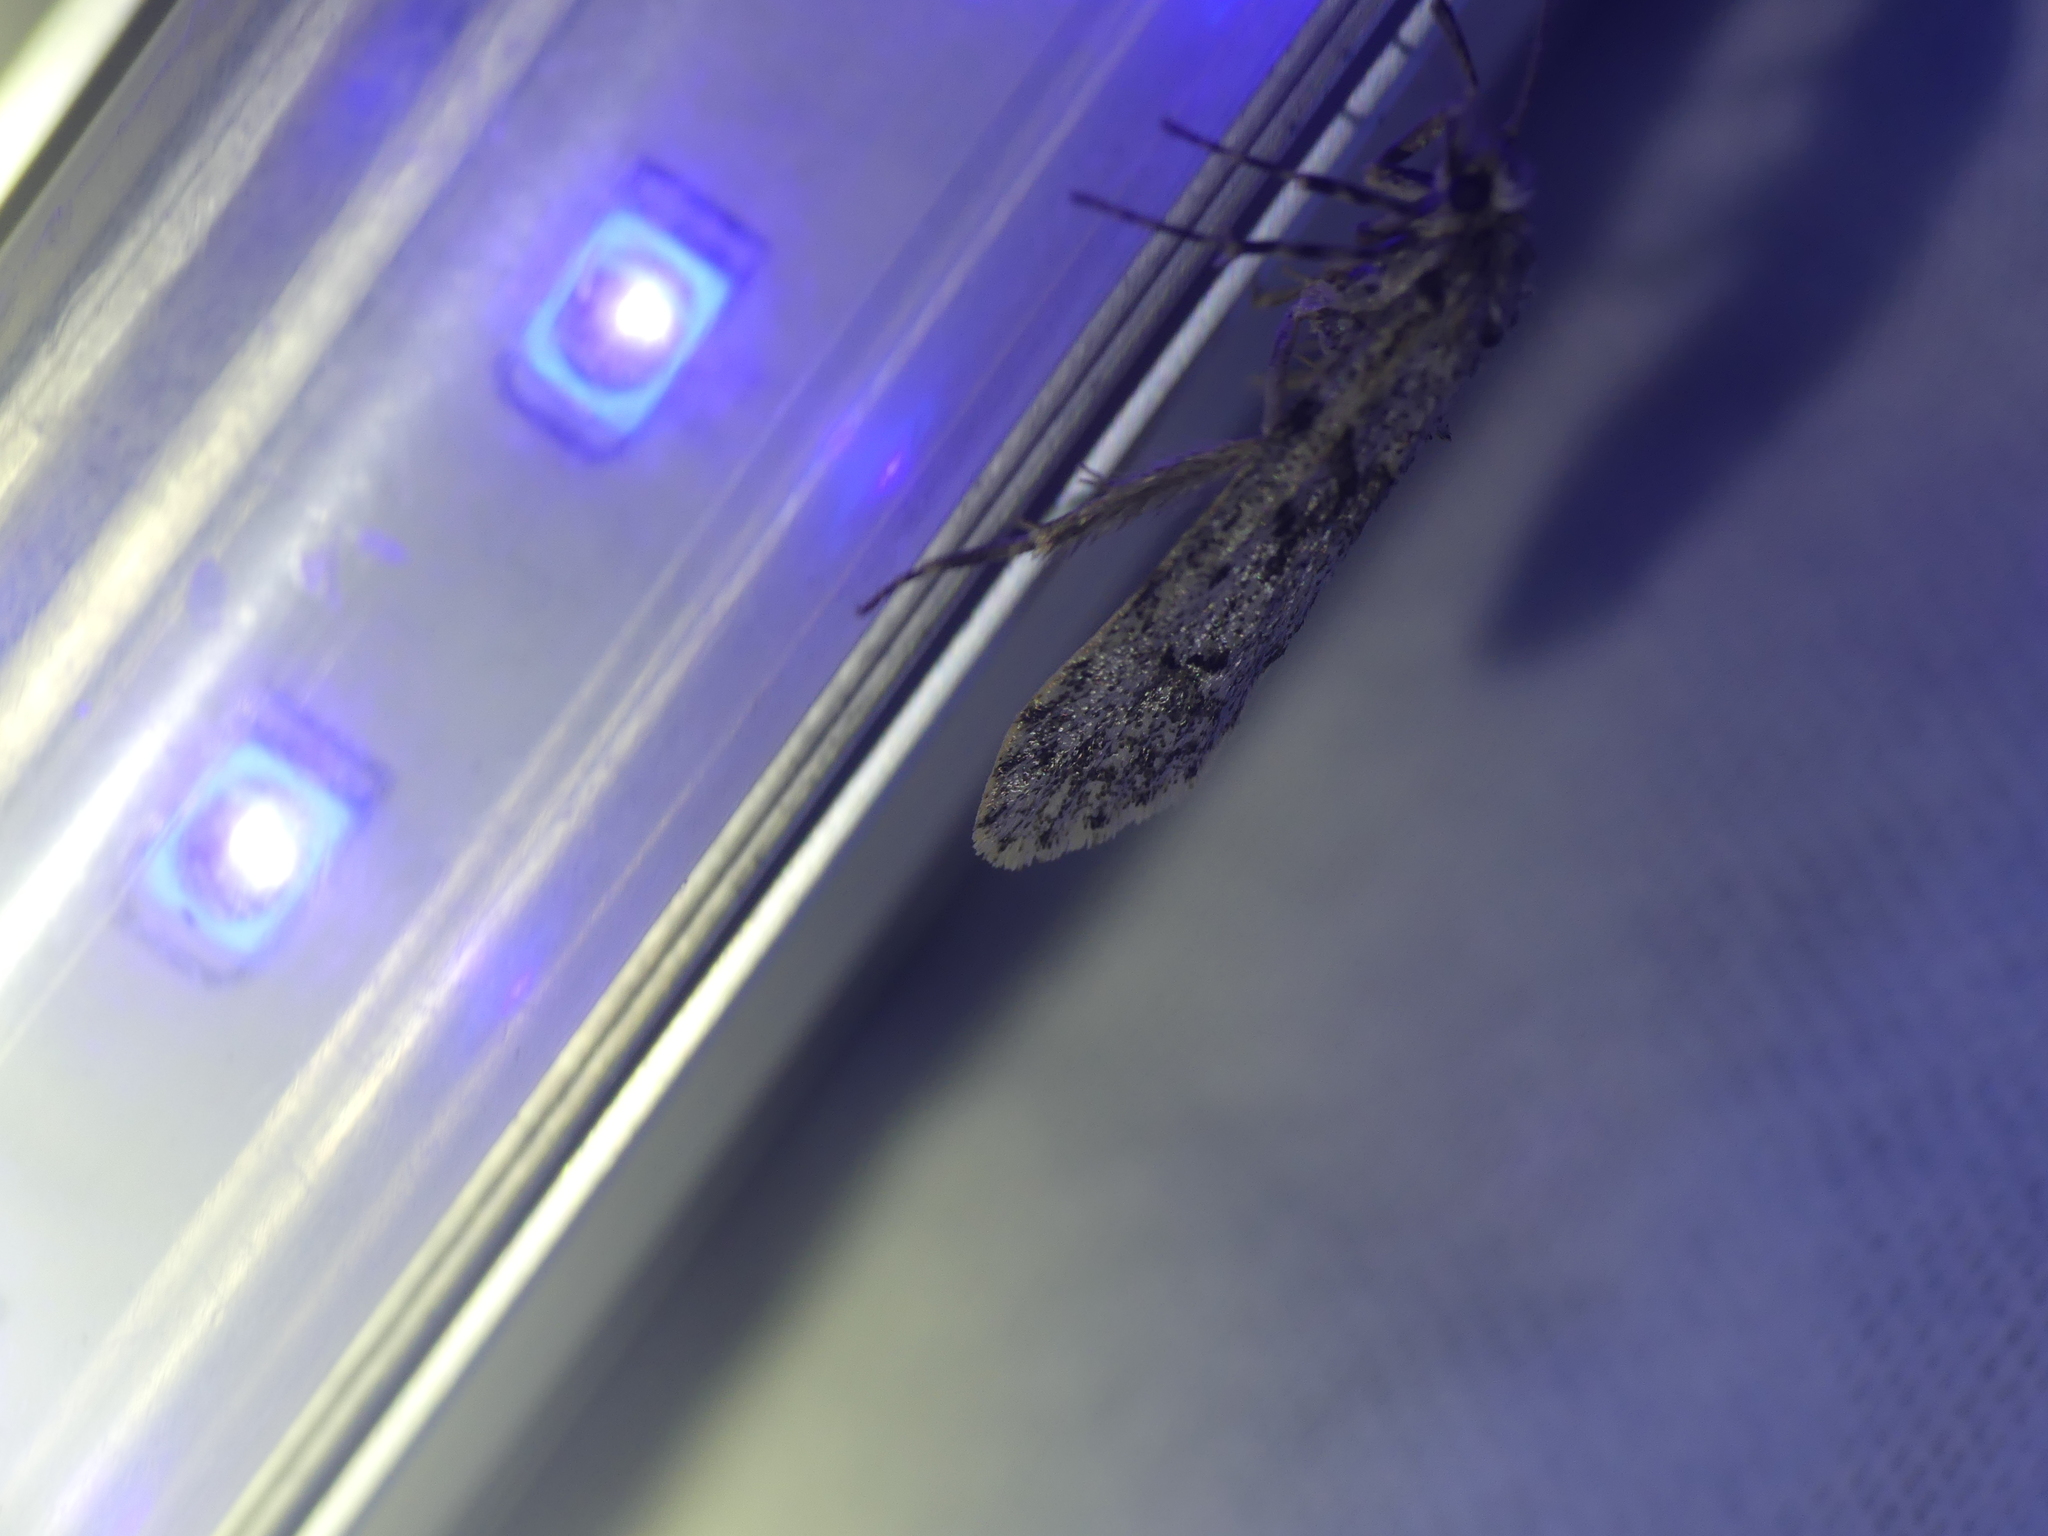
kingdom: Animalia
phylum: Arthropoda
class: Insecta
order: Lepidoptera
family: Lypusidae
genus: Diurnea
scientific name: Diurnea fagella
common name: March tubic
